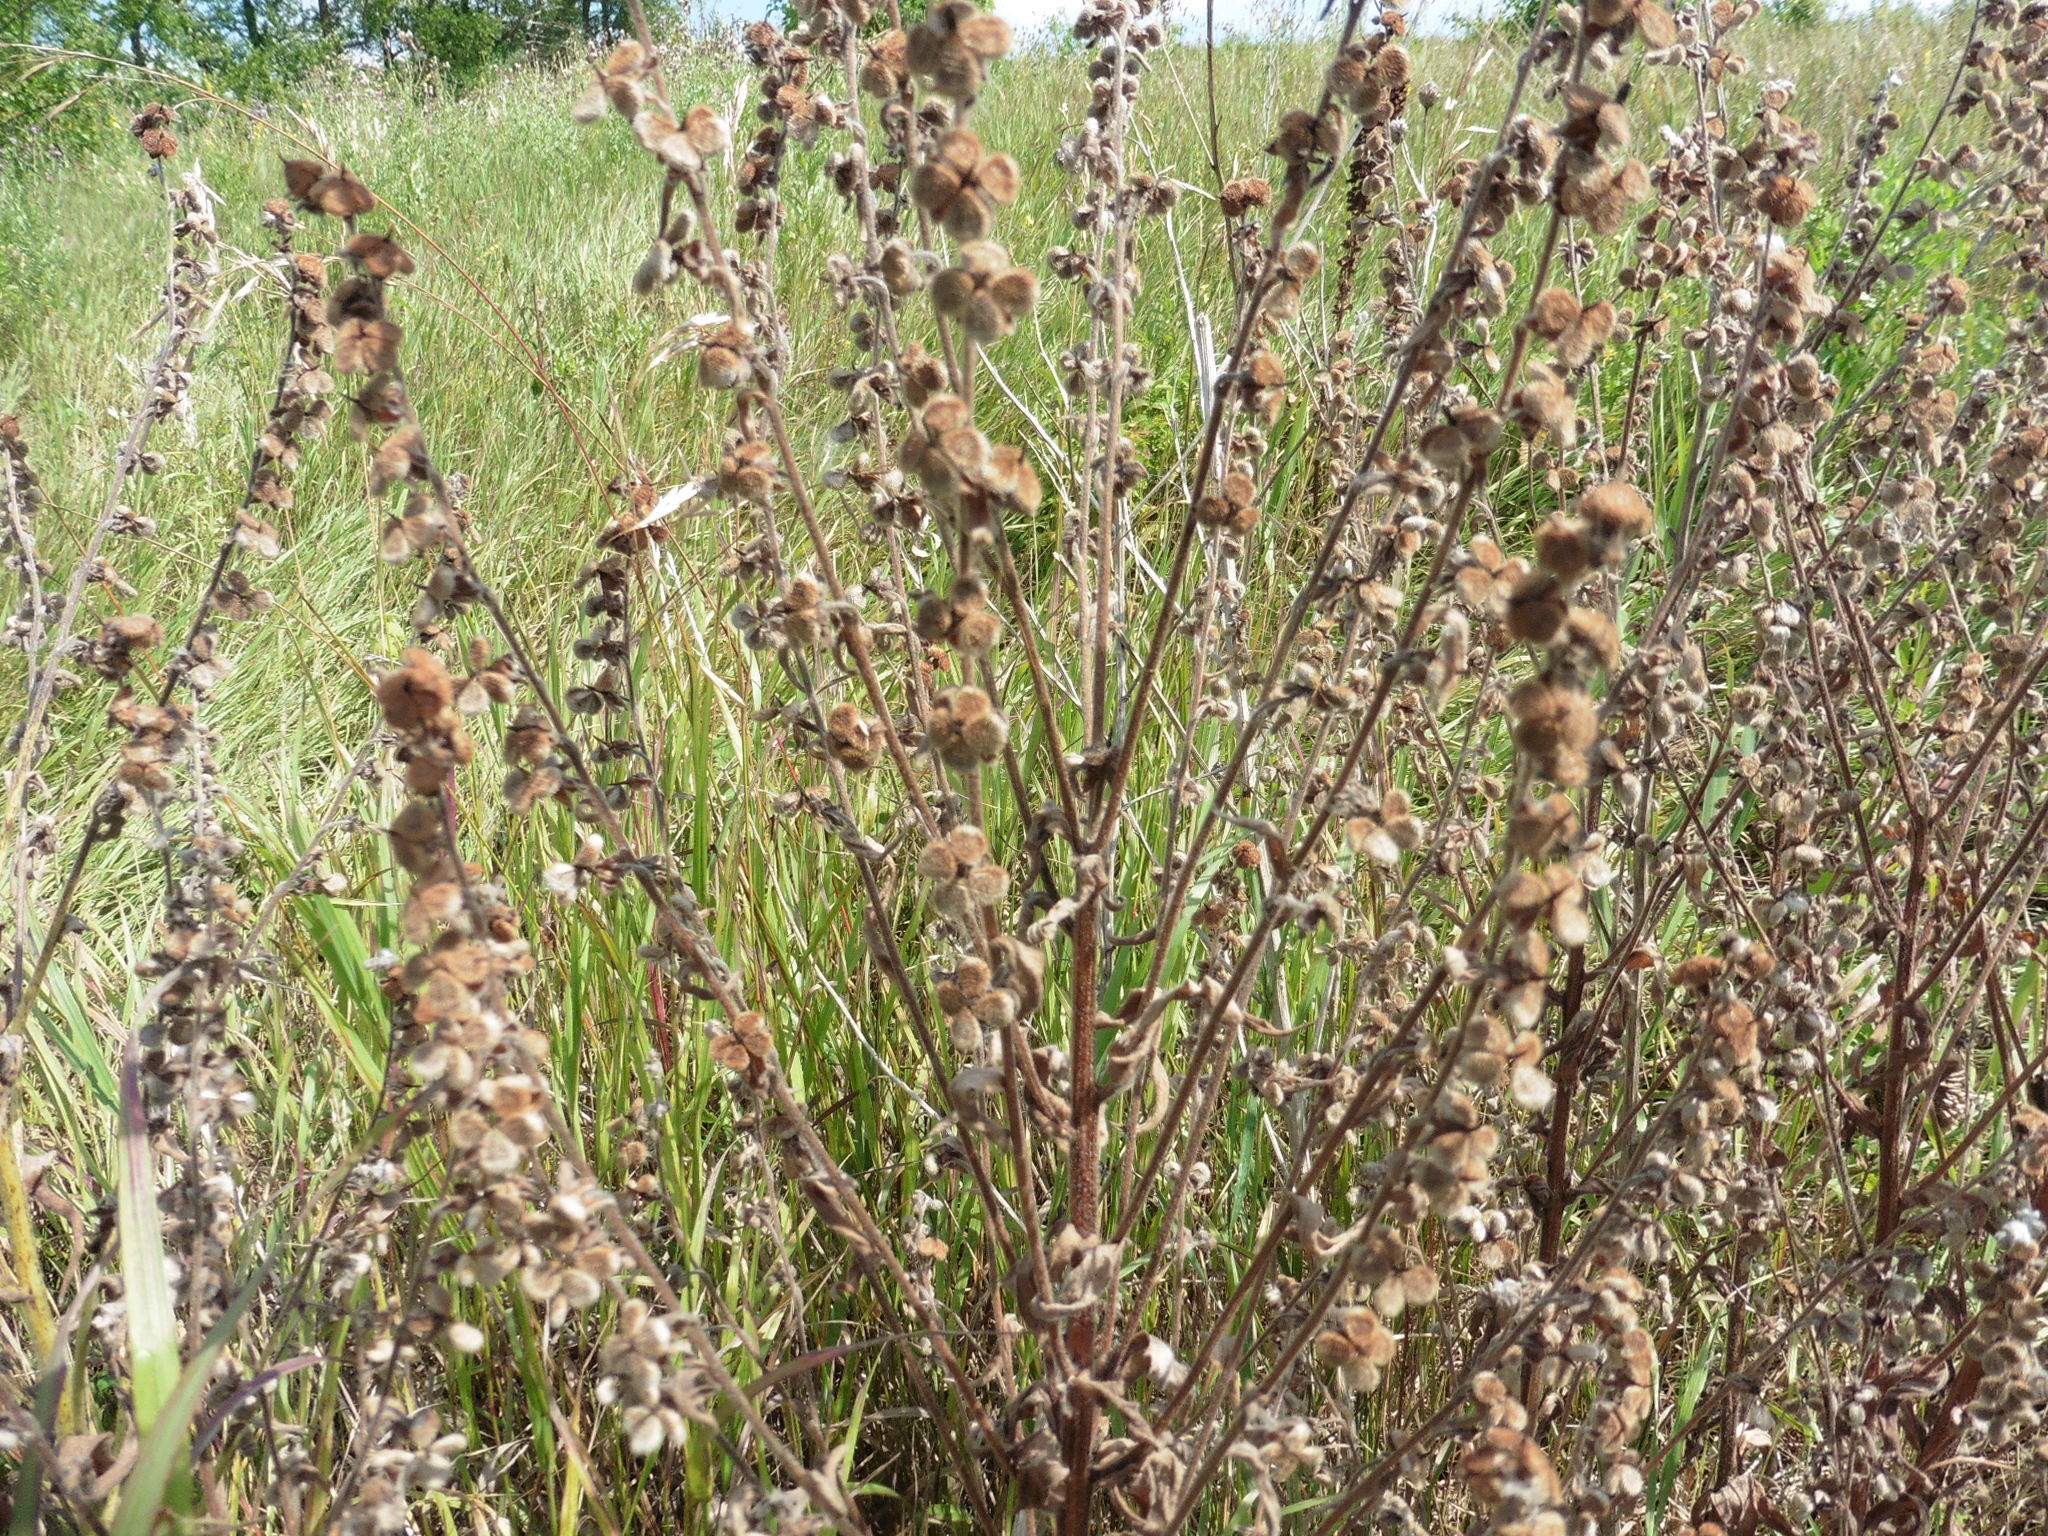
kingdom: Plantae
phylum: Tracheophyta
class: Magnoliopsida
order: Boraginales
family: Boraginaceae
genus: Cynoglossum
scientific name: Cynoglossum officinale
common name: Hound's-tongue
